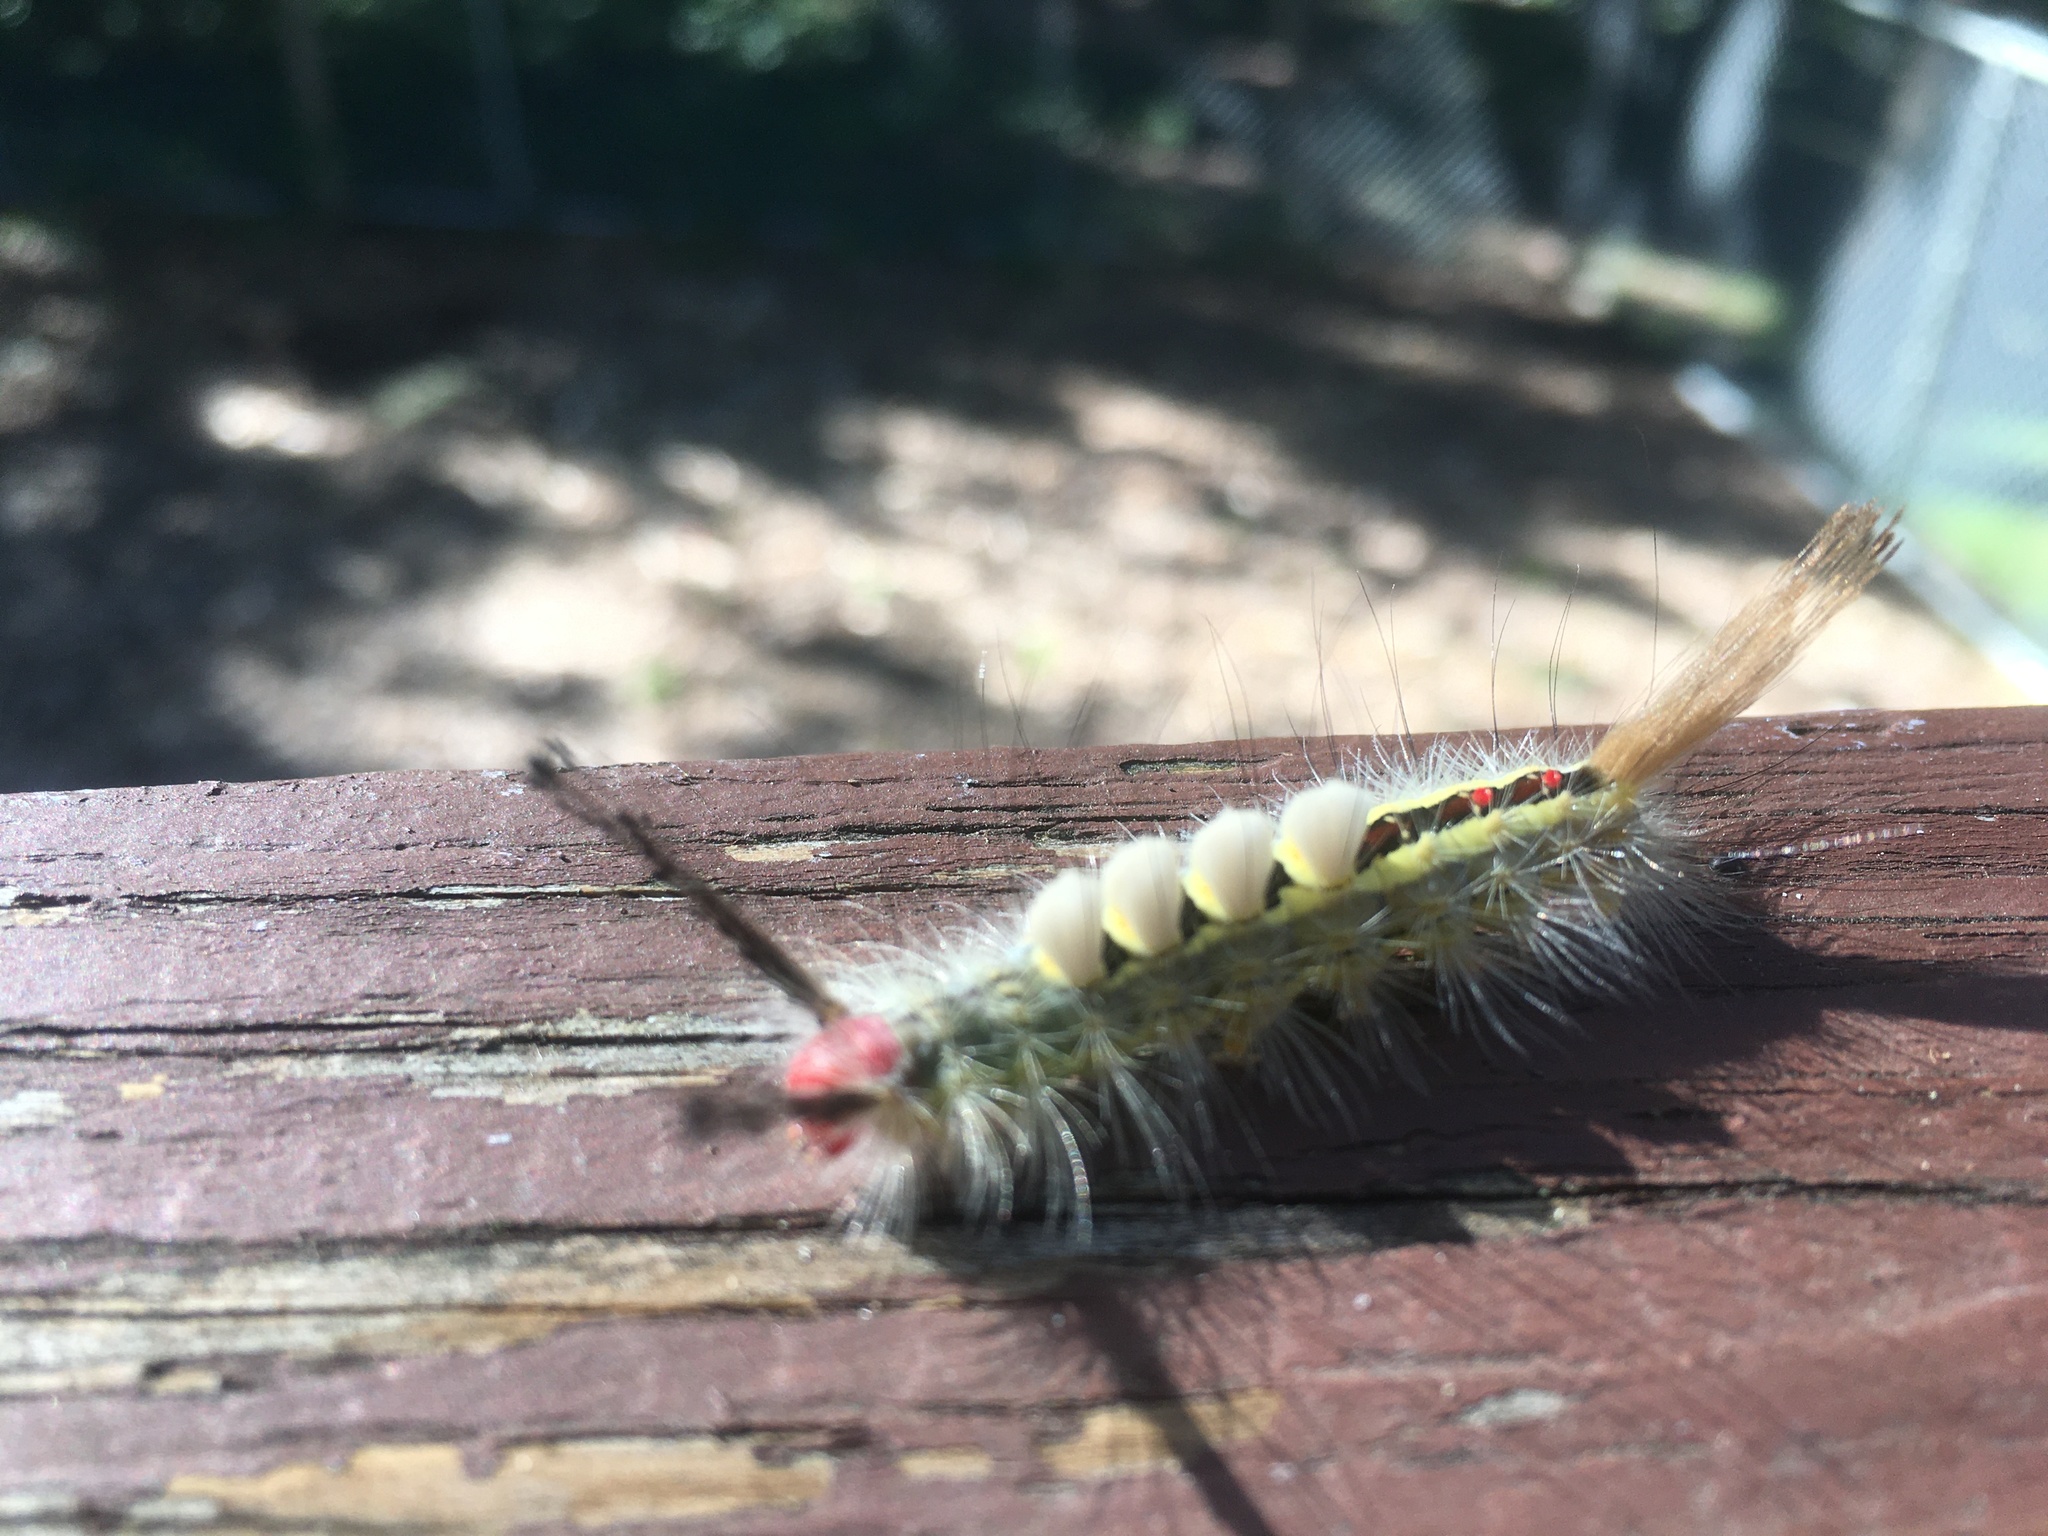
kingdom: Animalia
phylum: Arthropoda
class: Insecta
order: Lepidoptera
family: Erebidae
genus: Orgyia
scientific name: Orgyia leucostigma
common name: White-marked tussock moth
